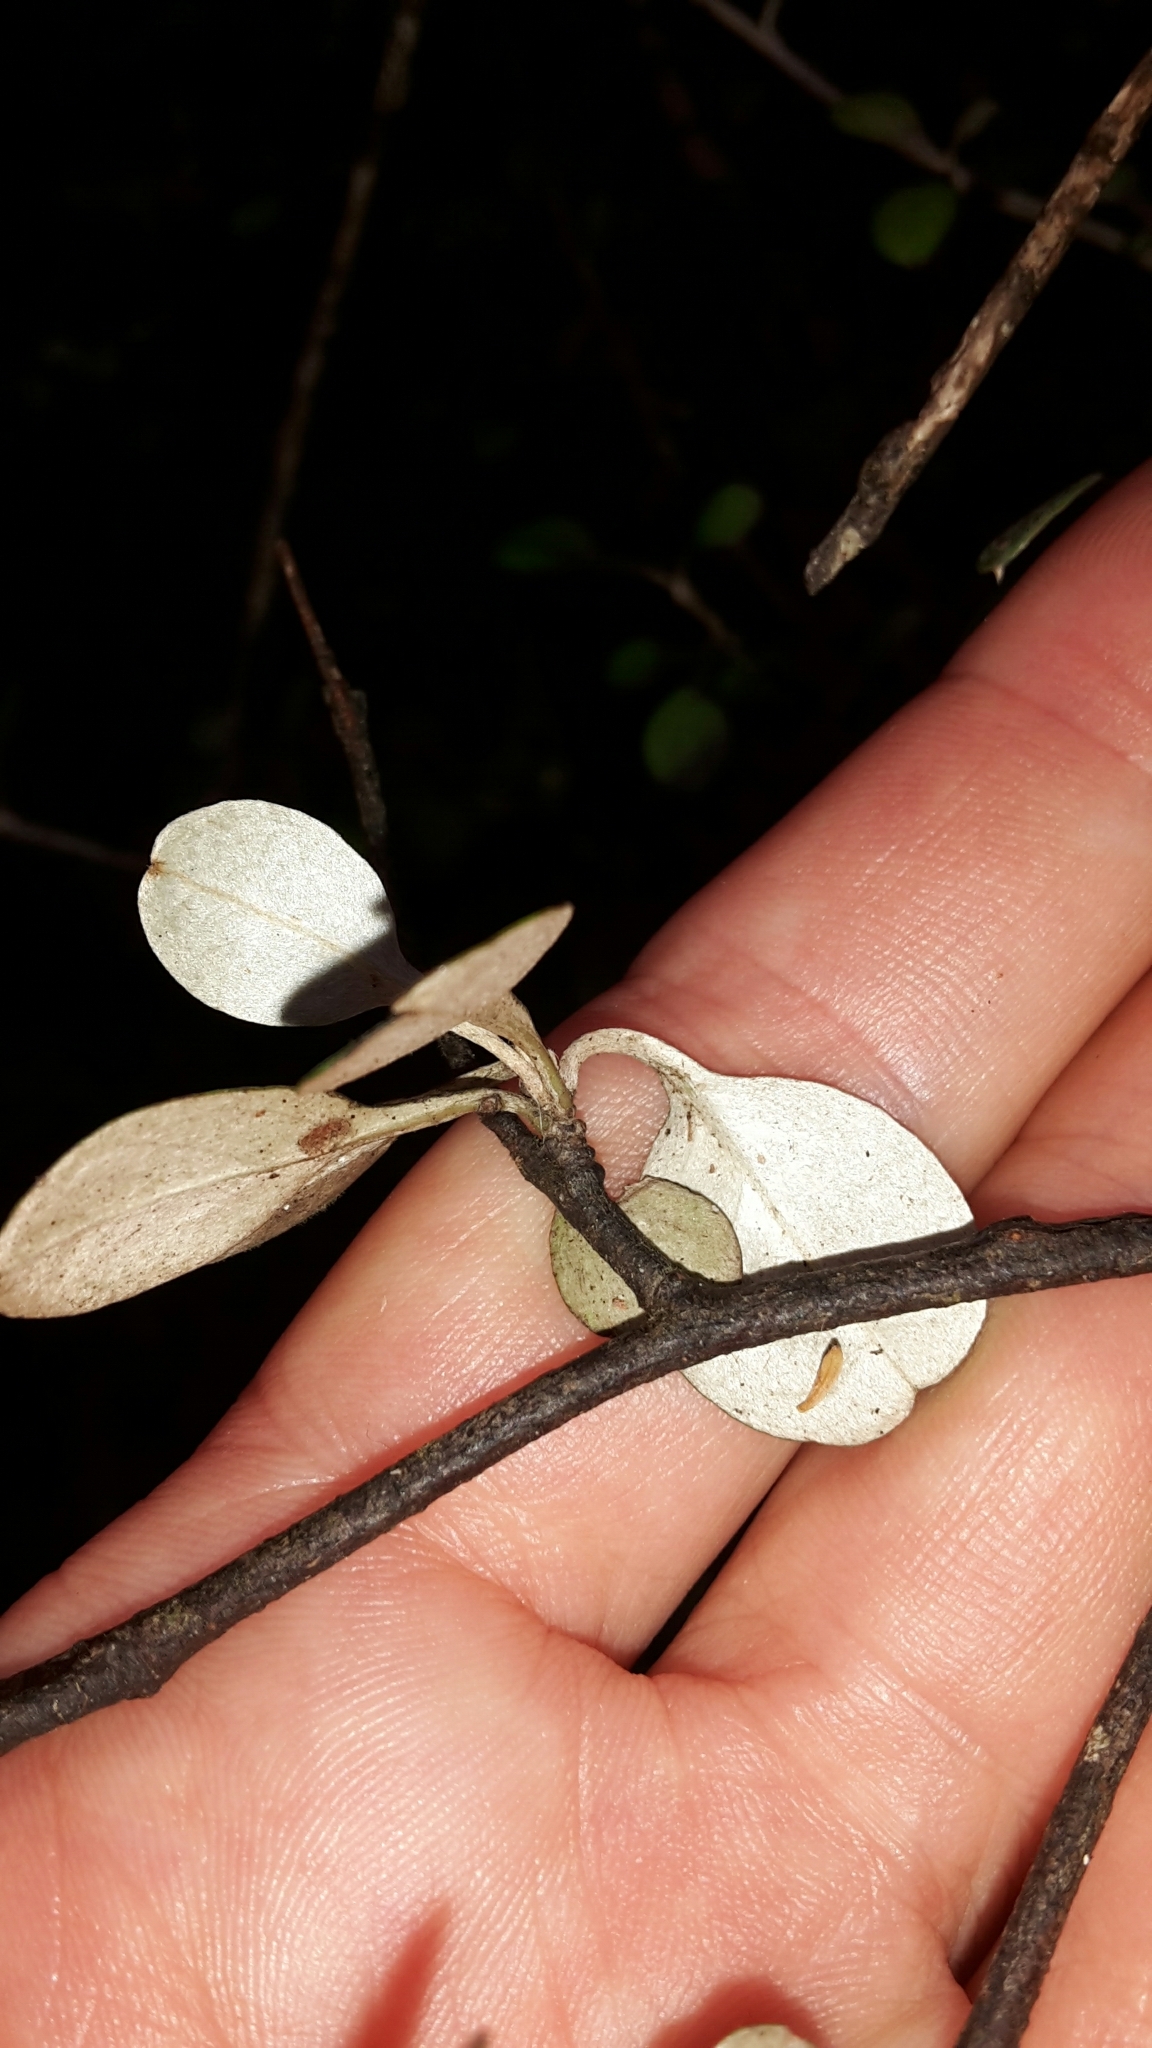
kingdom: Plantae
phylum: Tracheophyta
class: Magnoliopsida
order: Asterales
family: Argophyllaceae
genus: Corokia
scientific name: Corokia cotoneaster
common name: Wire nettingbush
